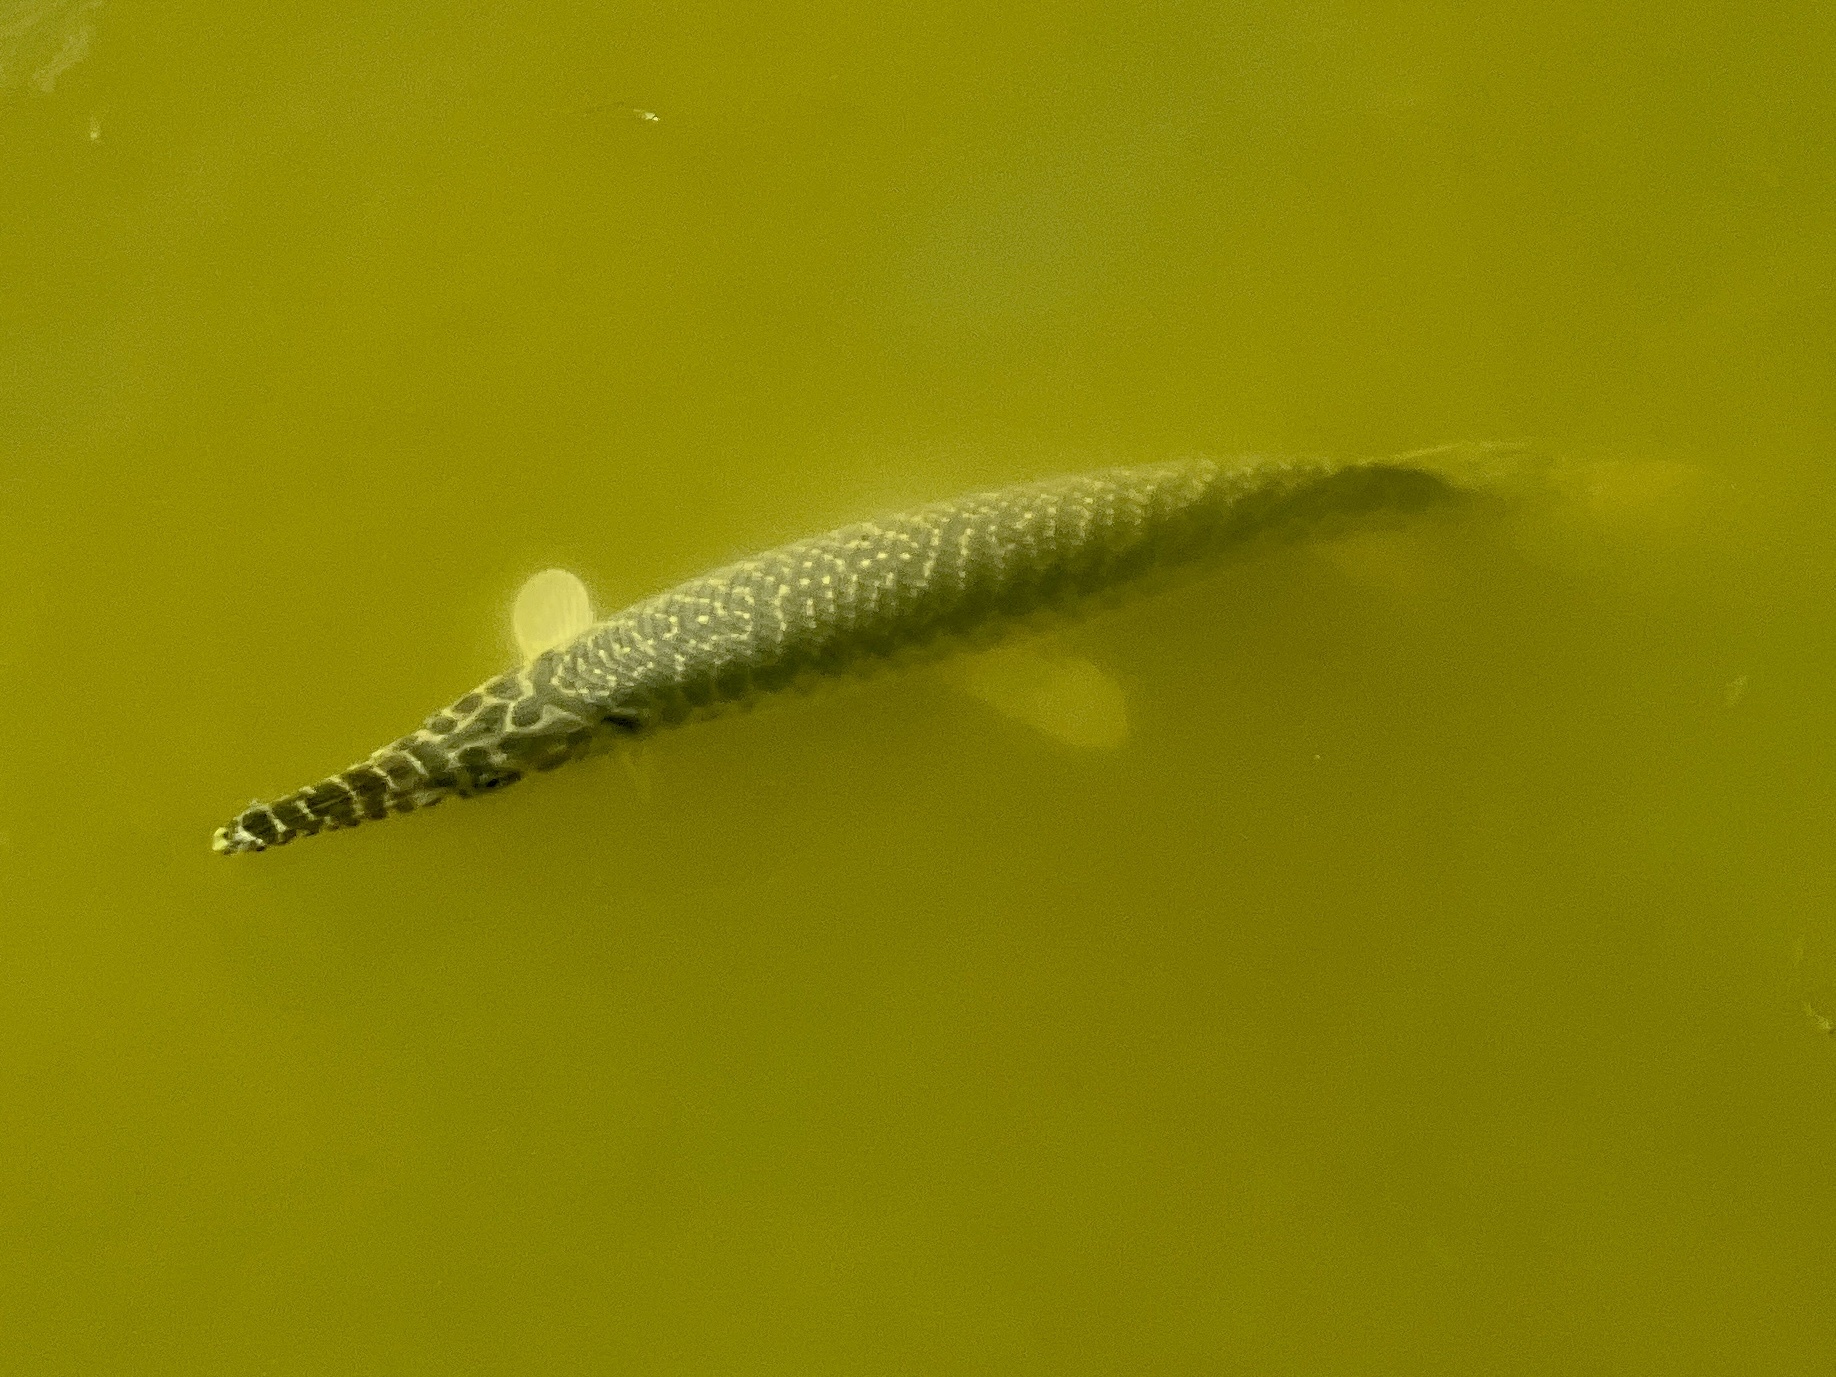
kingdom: Animalia
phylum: Chordata
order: Lepisosteiformes
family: Lepisosteidae
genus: Lepisosteus
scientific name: Lepisosteus oculatus
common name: Spotted gar
